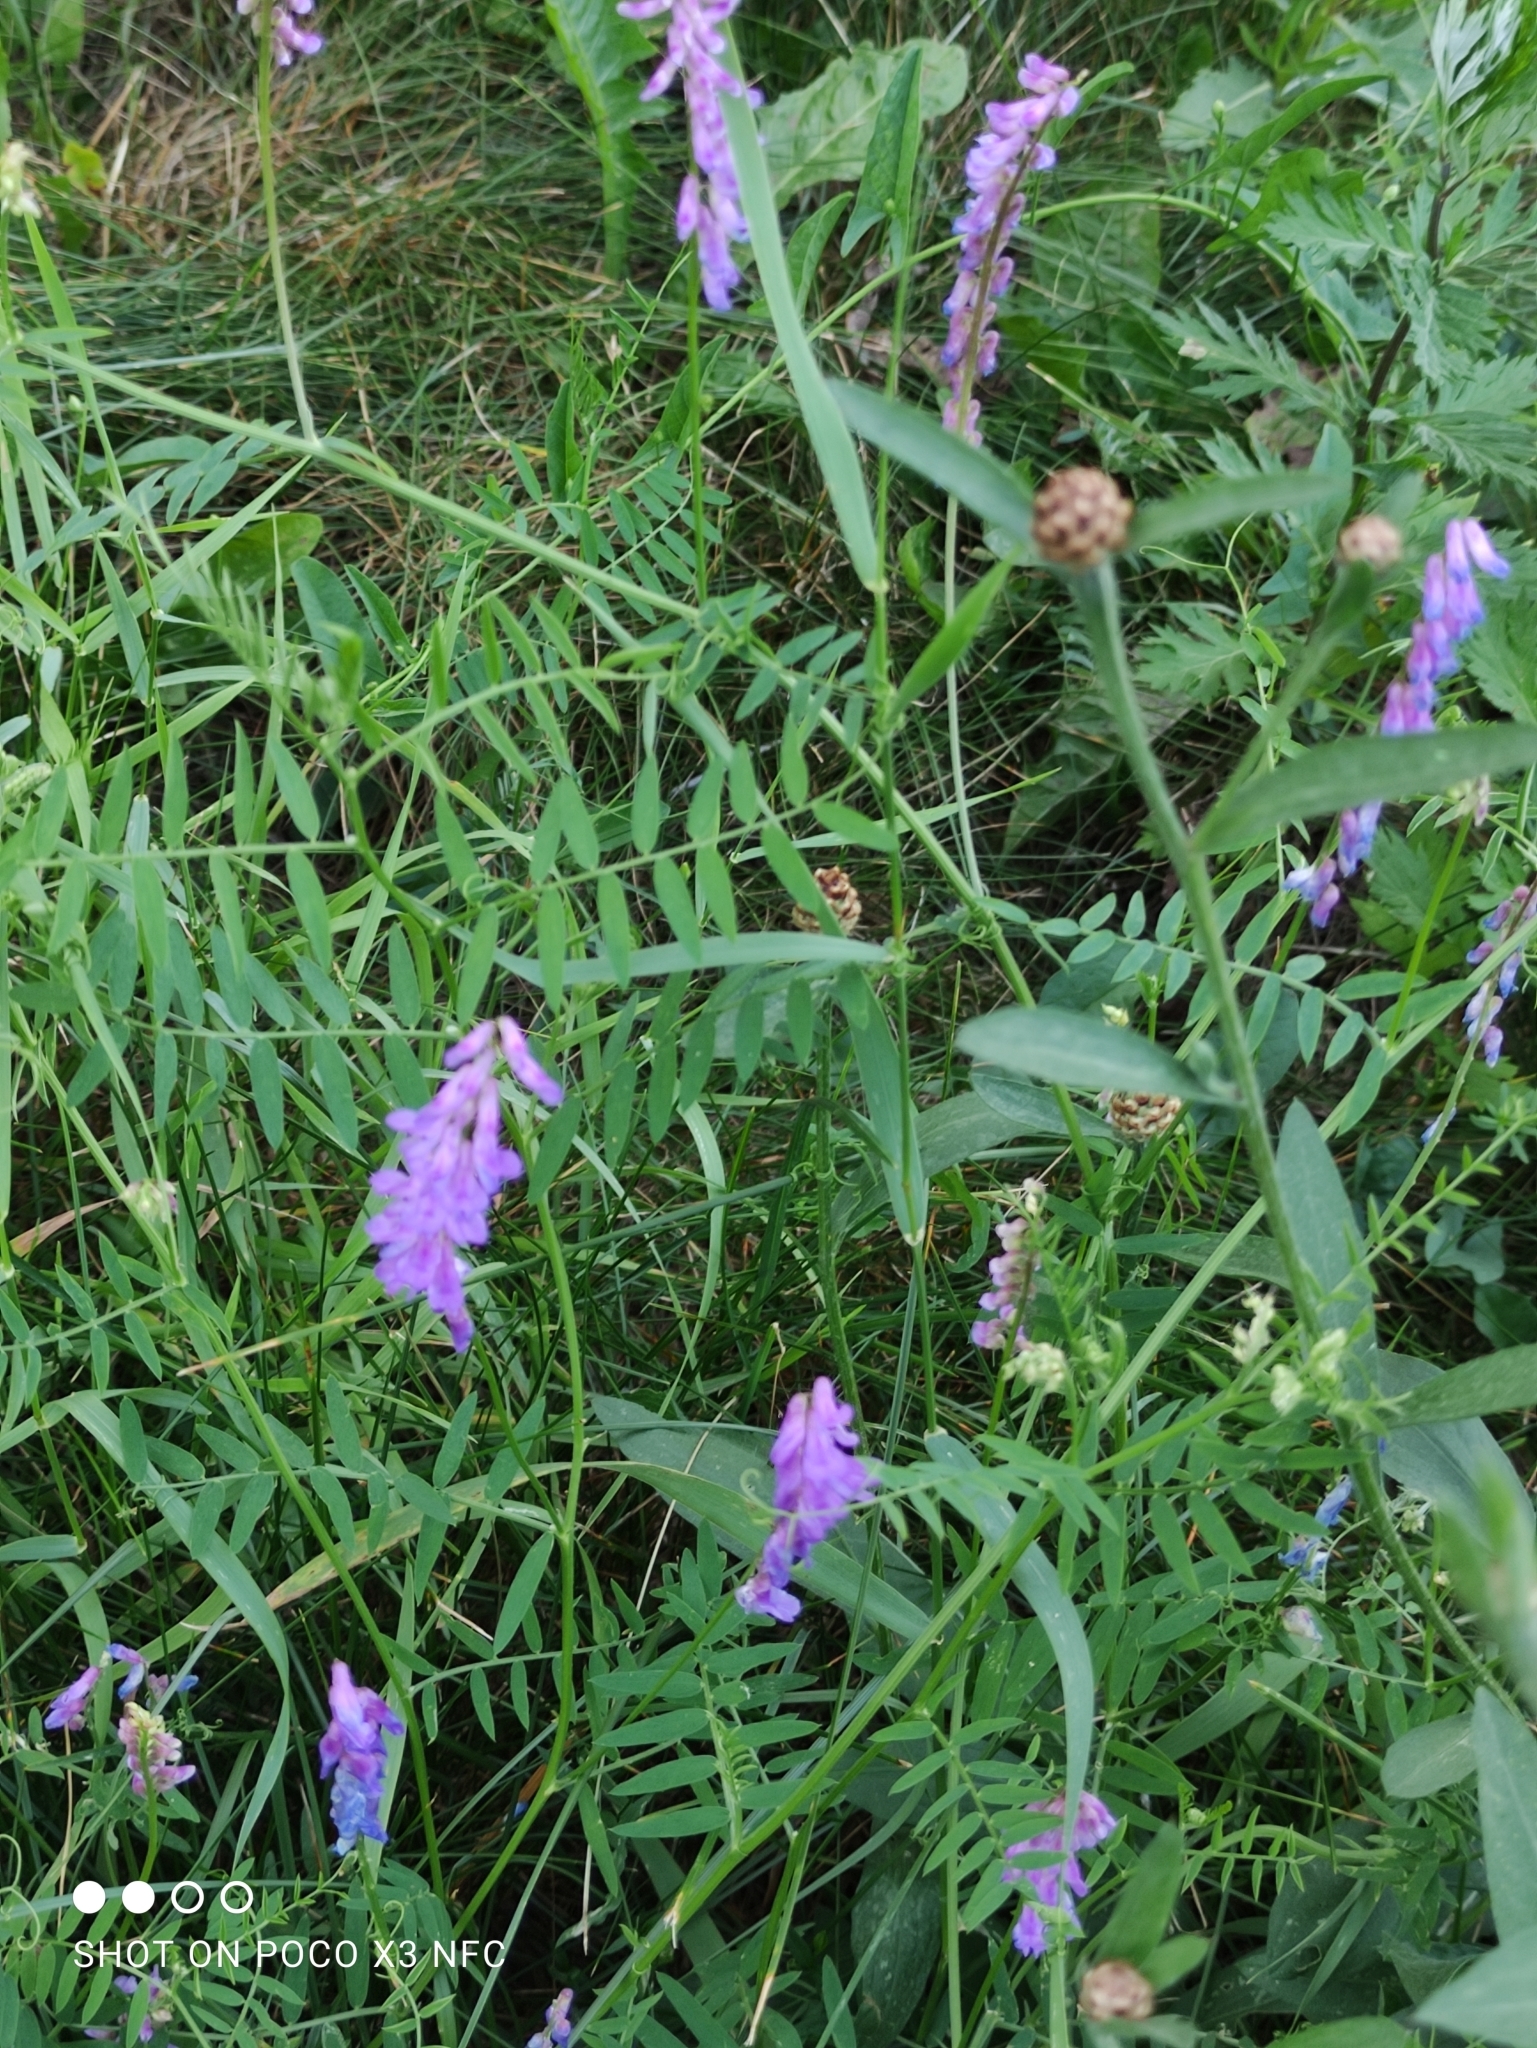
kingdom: Plantae
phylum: Tracheophyta
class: Magnoliopsida
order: Fabales
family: Fabaceae
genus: Vicia
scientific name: Vicia cracca
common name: Bird vetch
